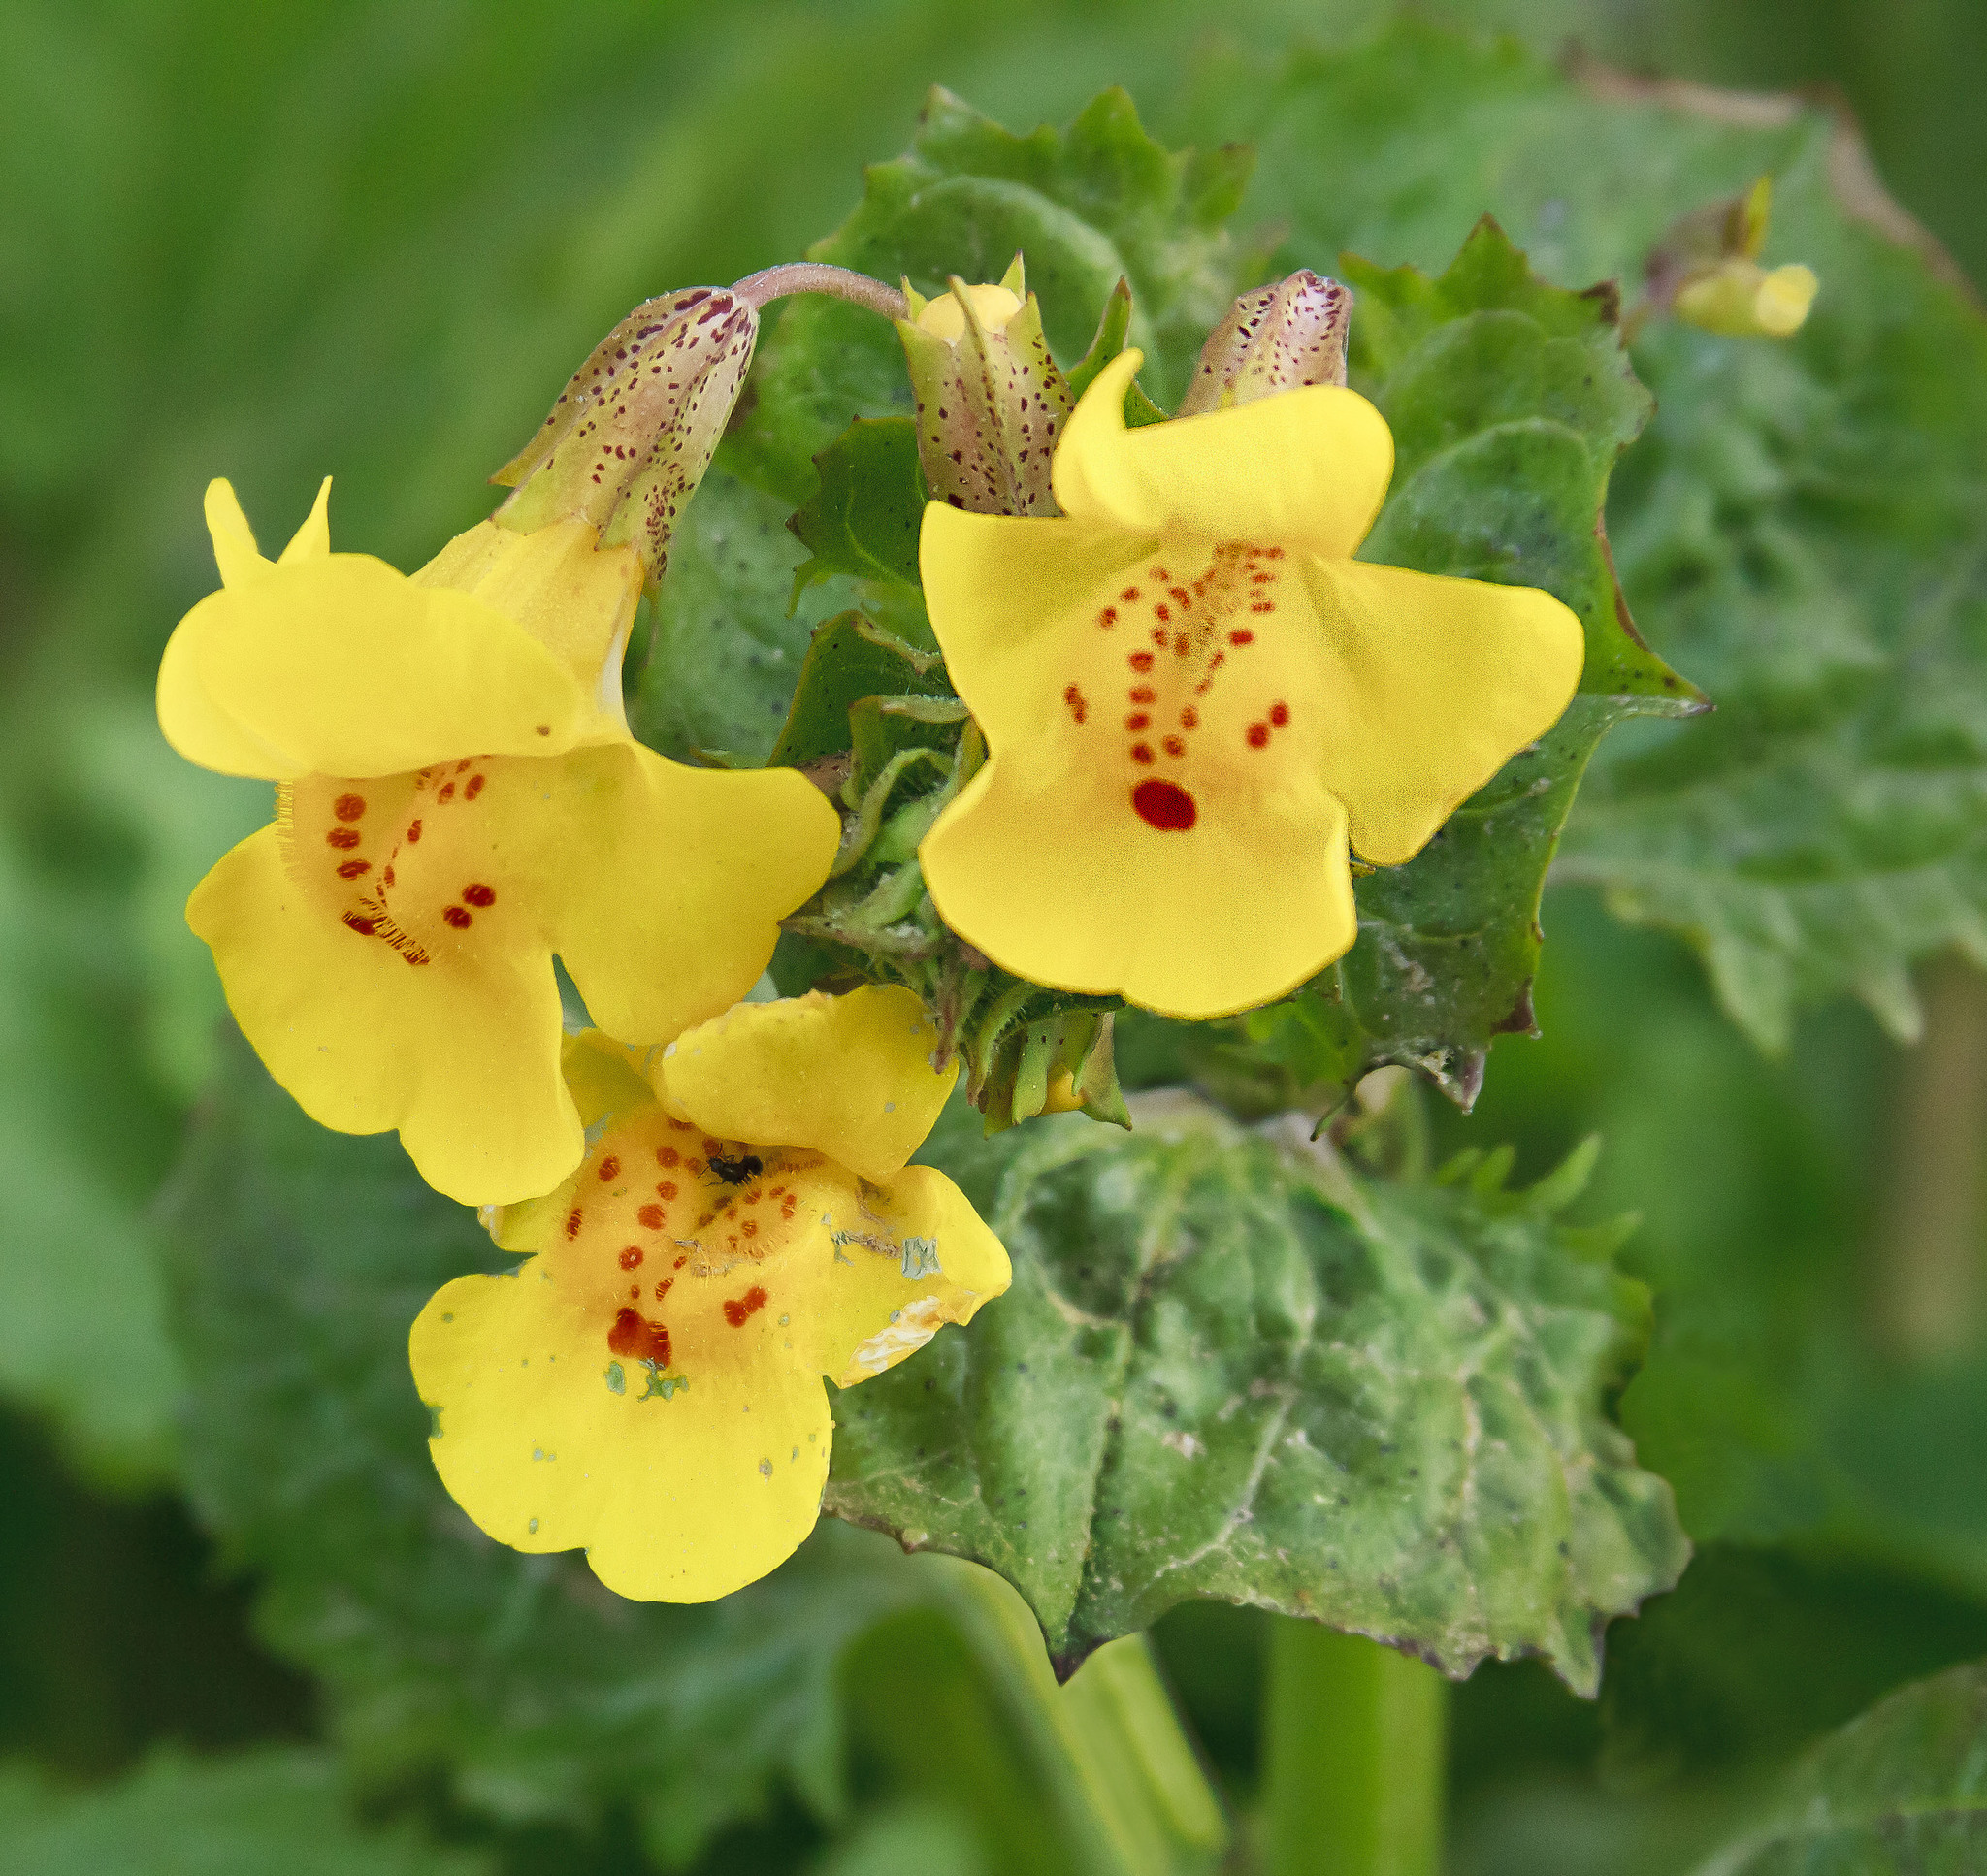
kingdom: Plantae
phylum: Tracheophyta
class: Magnoliopsida
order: Lamiales
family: Phrymaceae
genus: Erythranthe
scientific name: Erythranthe guttata
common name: Monkeyflower
